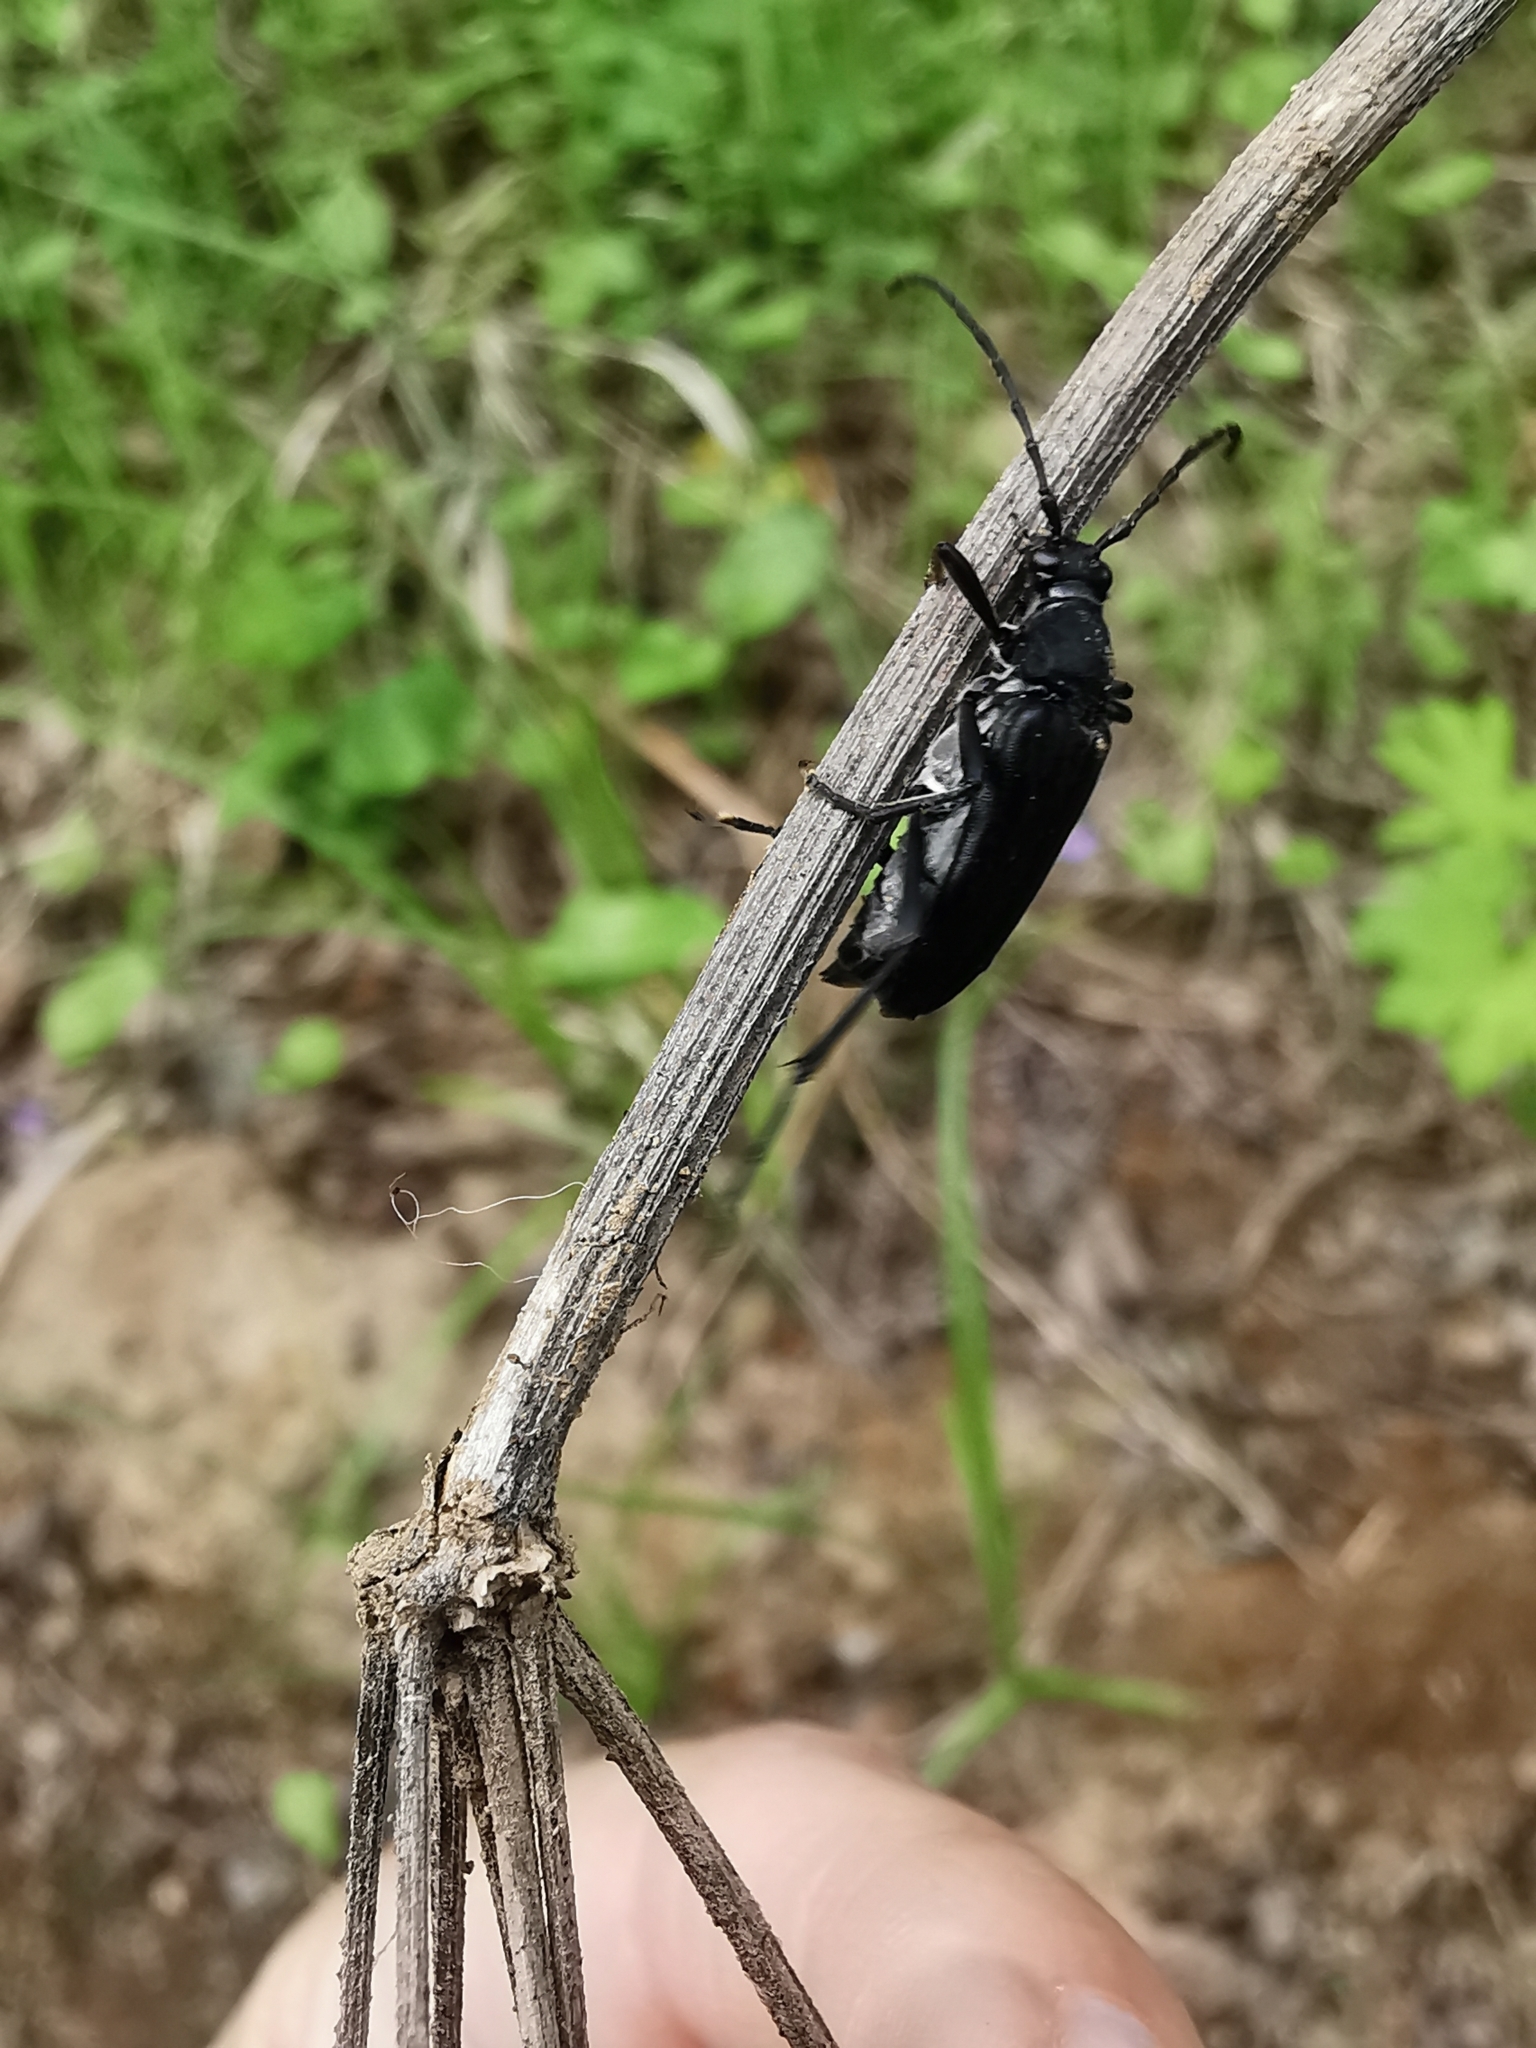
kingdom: Animalia
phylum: Arthropoda
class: Insecta
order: Coleoptera
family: Cerambycidae
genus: Leptura
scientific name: Leptura aethiops
